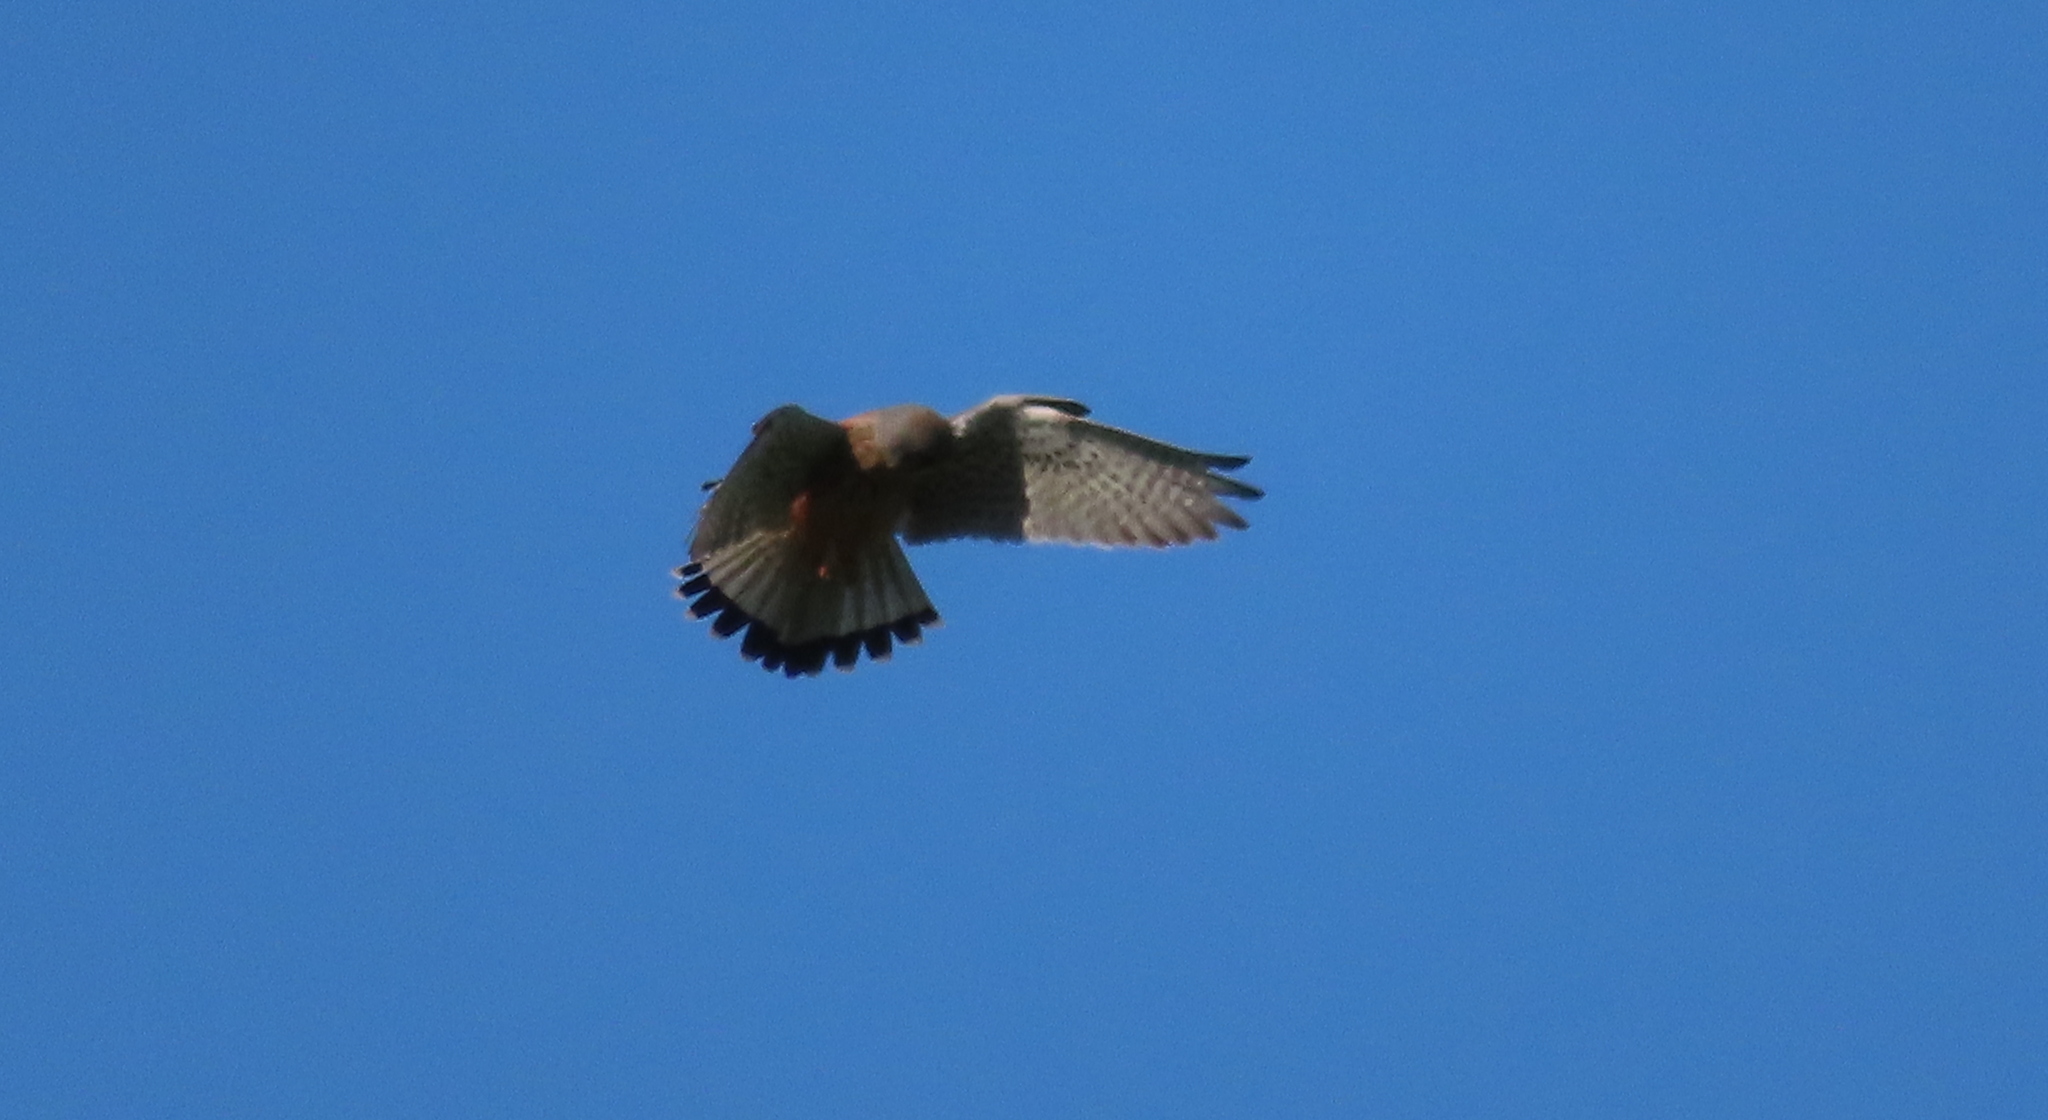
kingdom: Animalia
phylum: Chordata
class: Aves
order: Falconiformes
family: Falconidae
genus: Falco
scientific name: Falco tinnunculus
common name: Common kestrel
